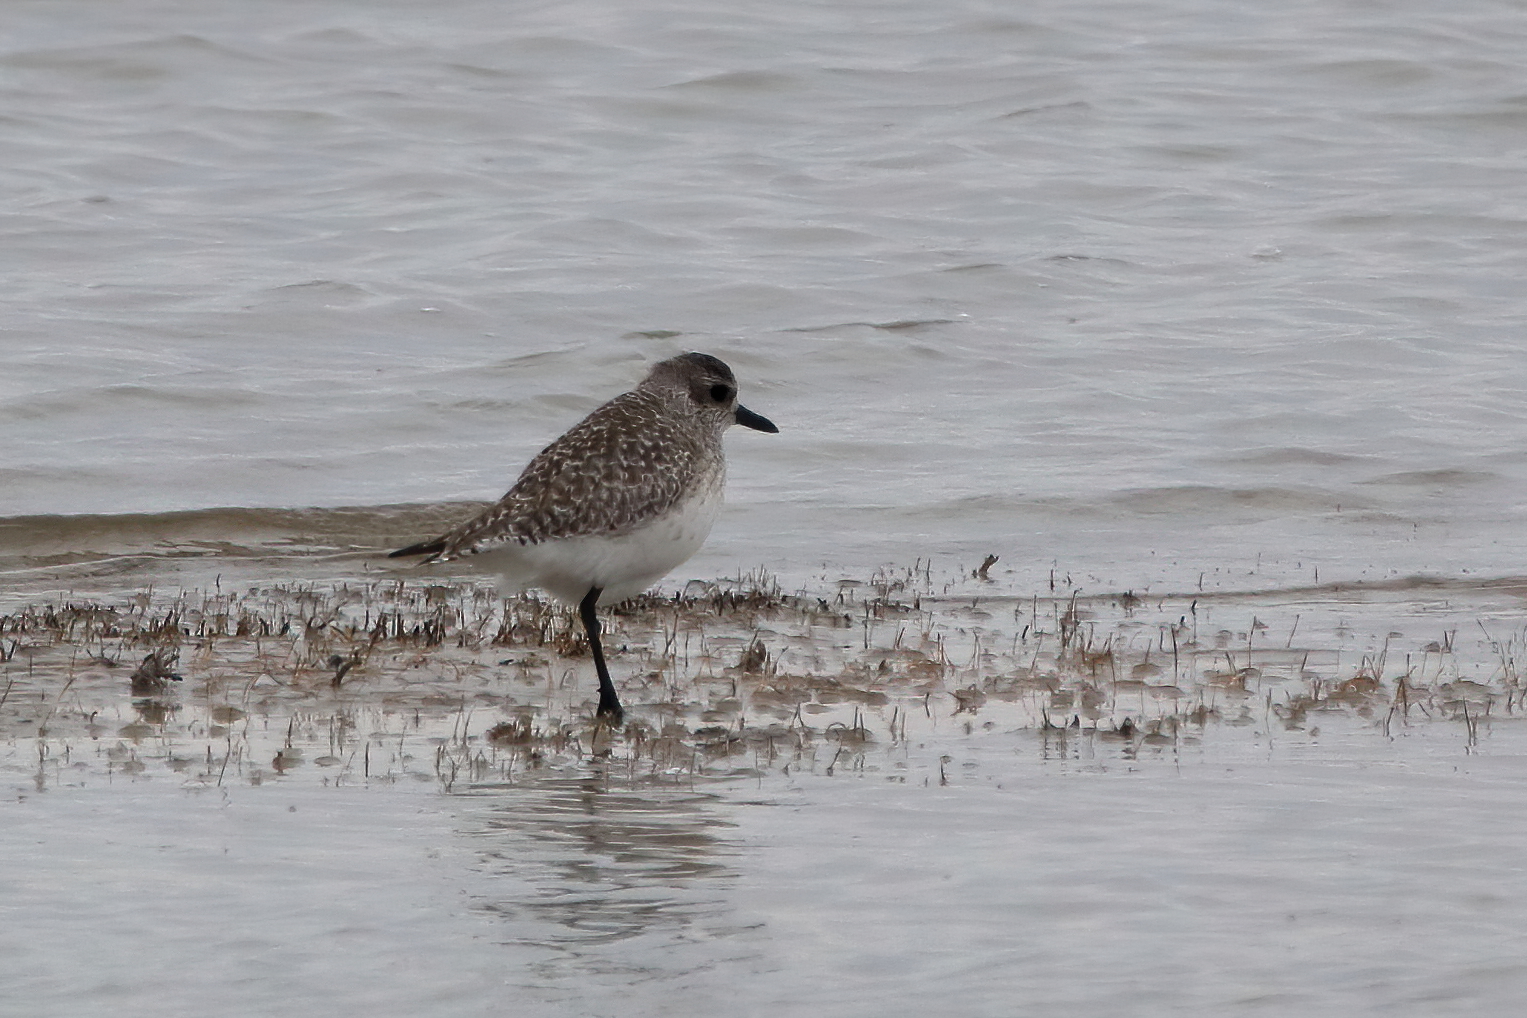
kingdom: Animalia
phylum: Chordata
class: Aves
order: Charadriiformes
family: Charadriidae
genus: Pluvialis
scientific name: Pluvialis squatarola
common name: Grey plover
